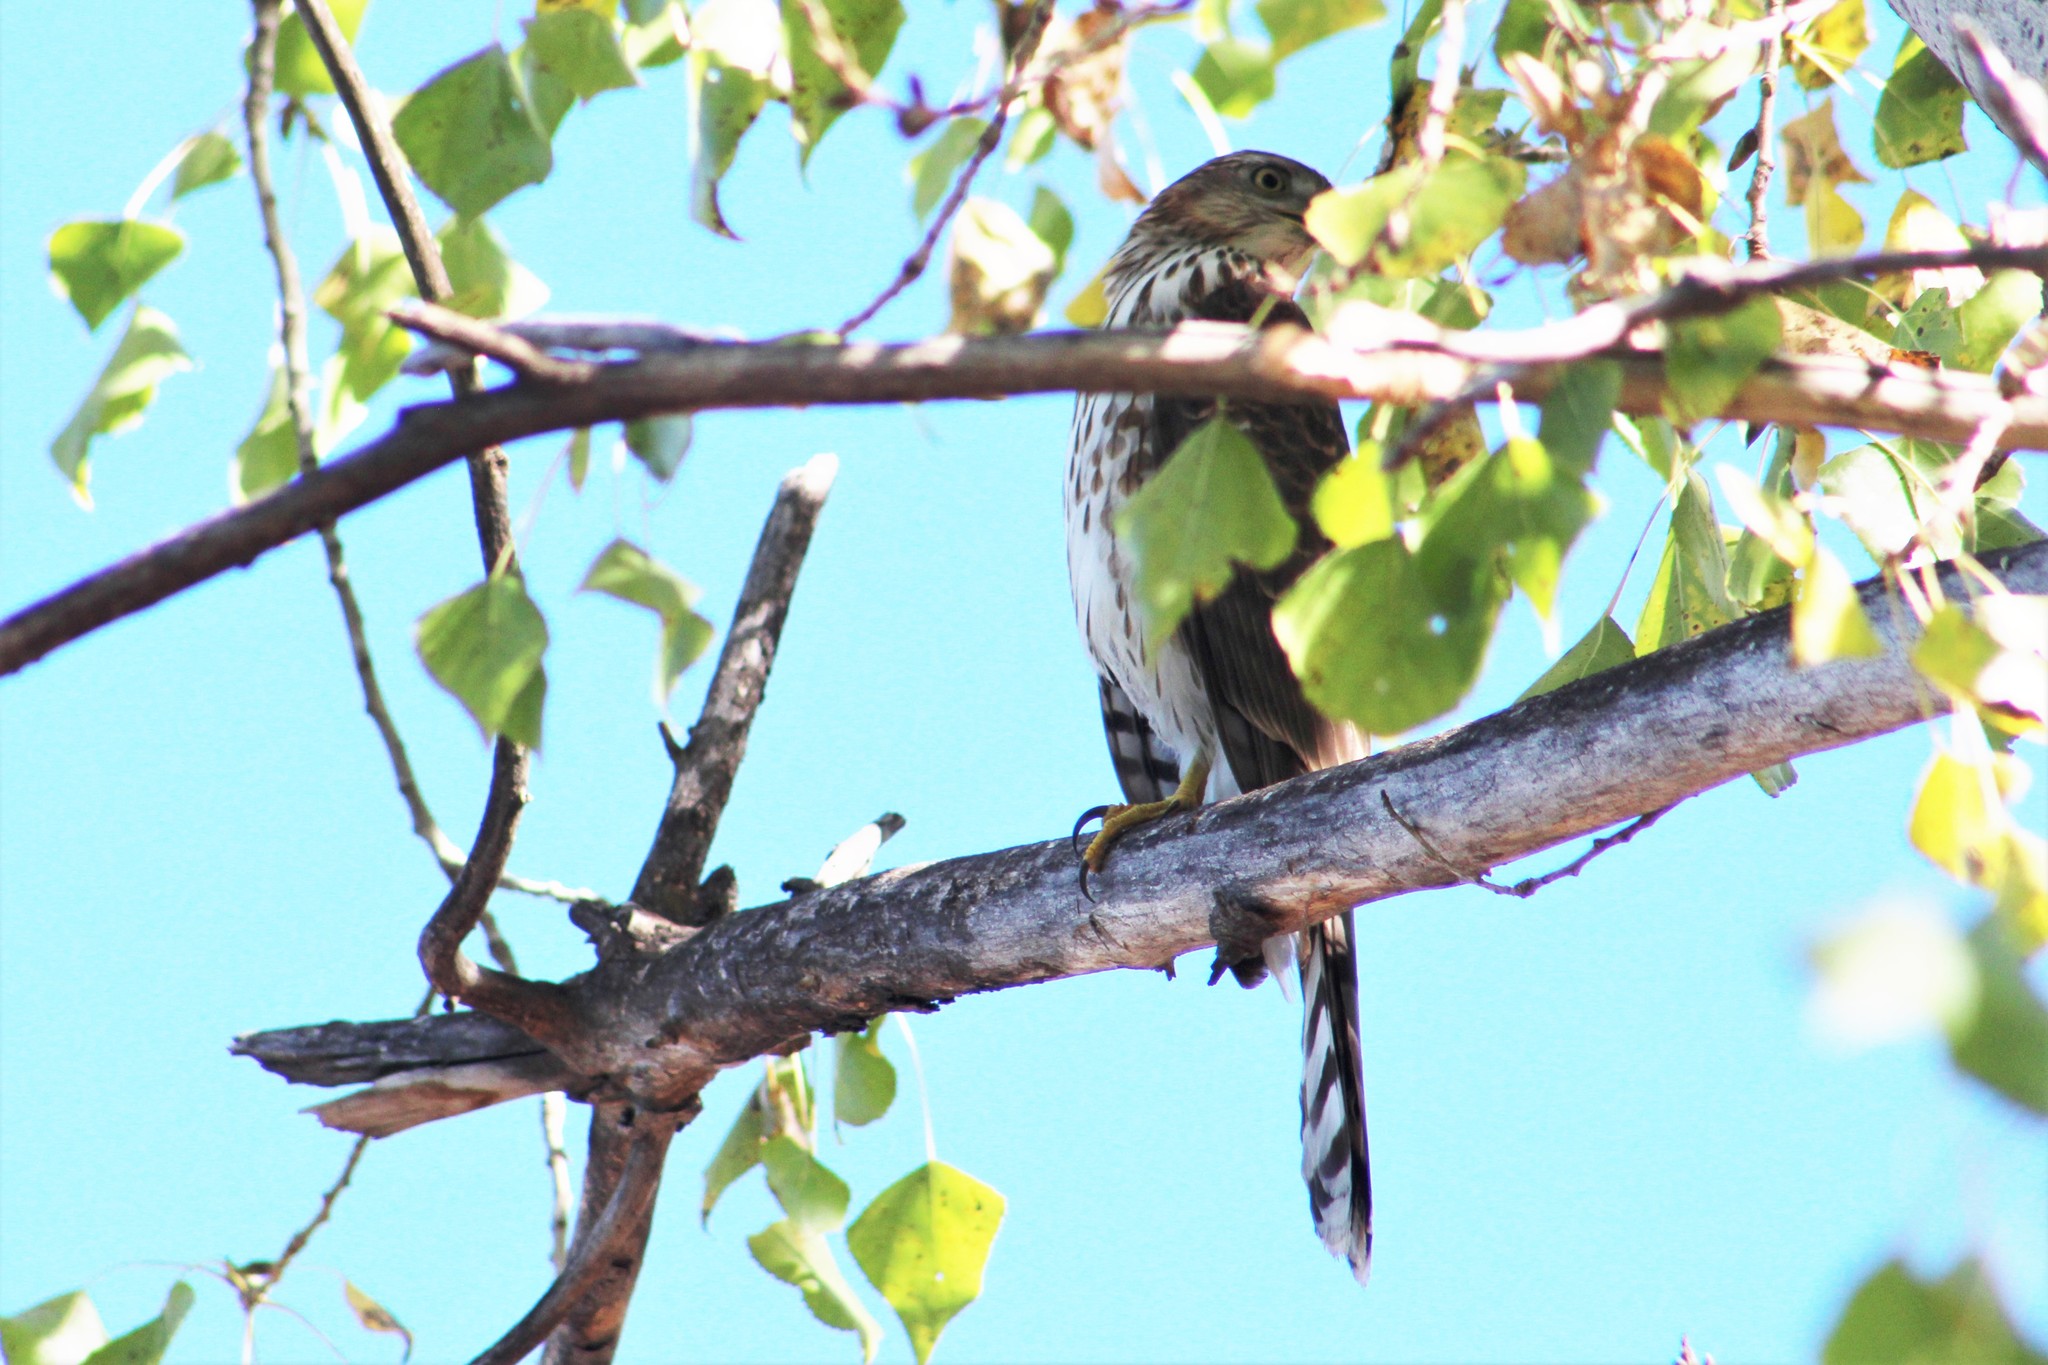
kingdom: Animalia
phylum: Chordata
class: Aves
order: Accipitriformes
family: Accipitridae
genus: Accipiter
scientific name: Accipiter cooperii
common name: Cooper's hawk
